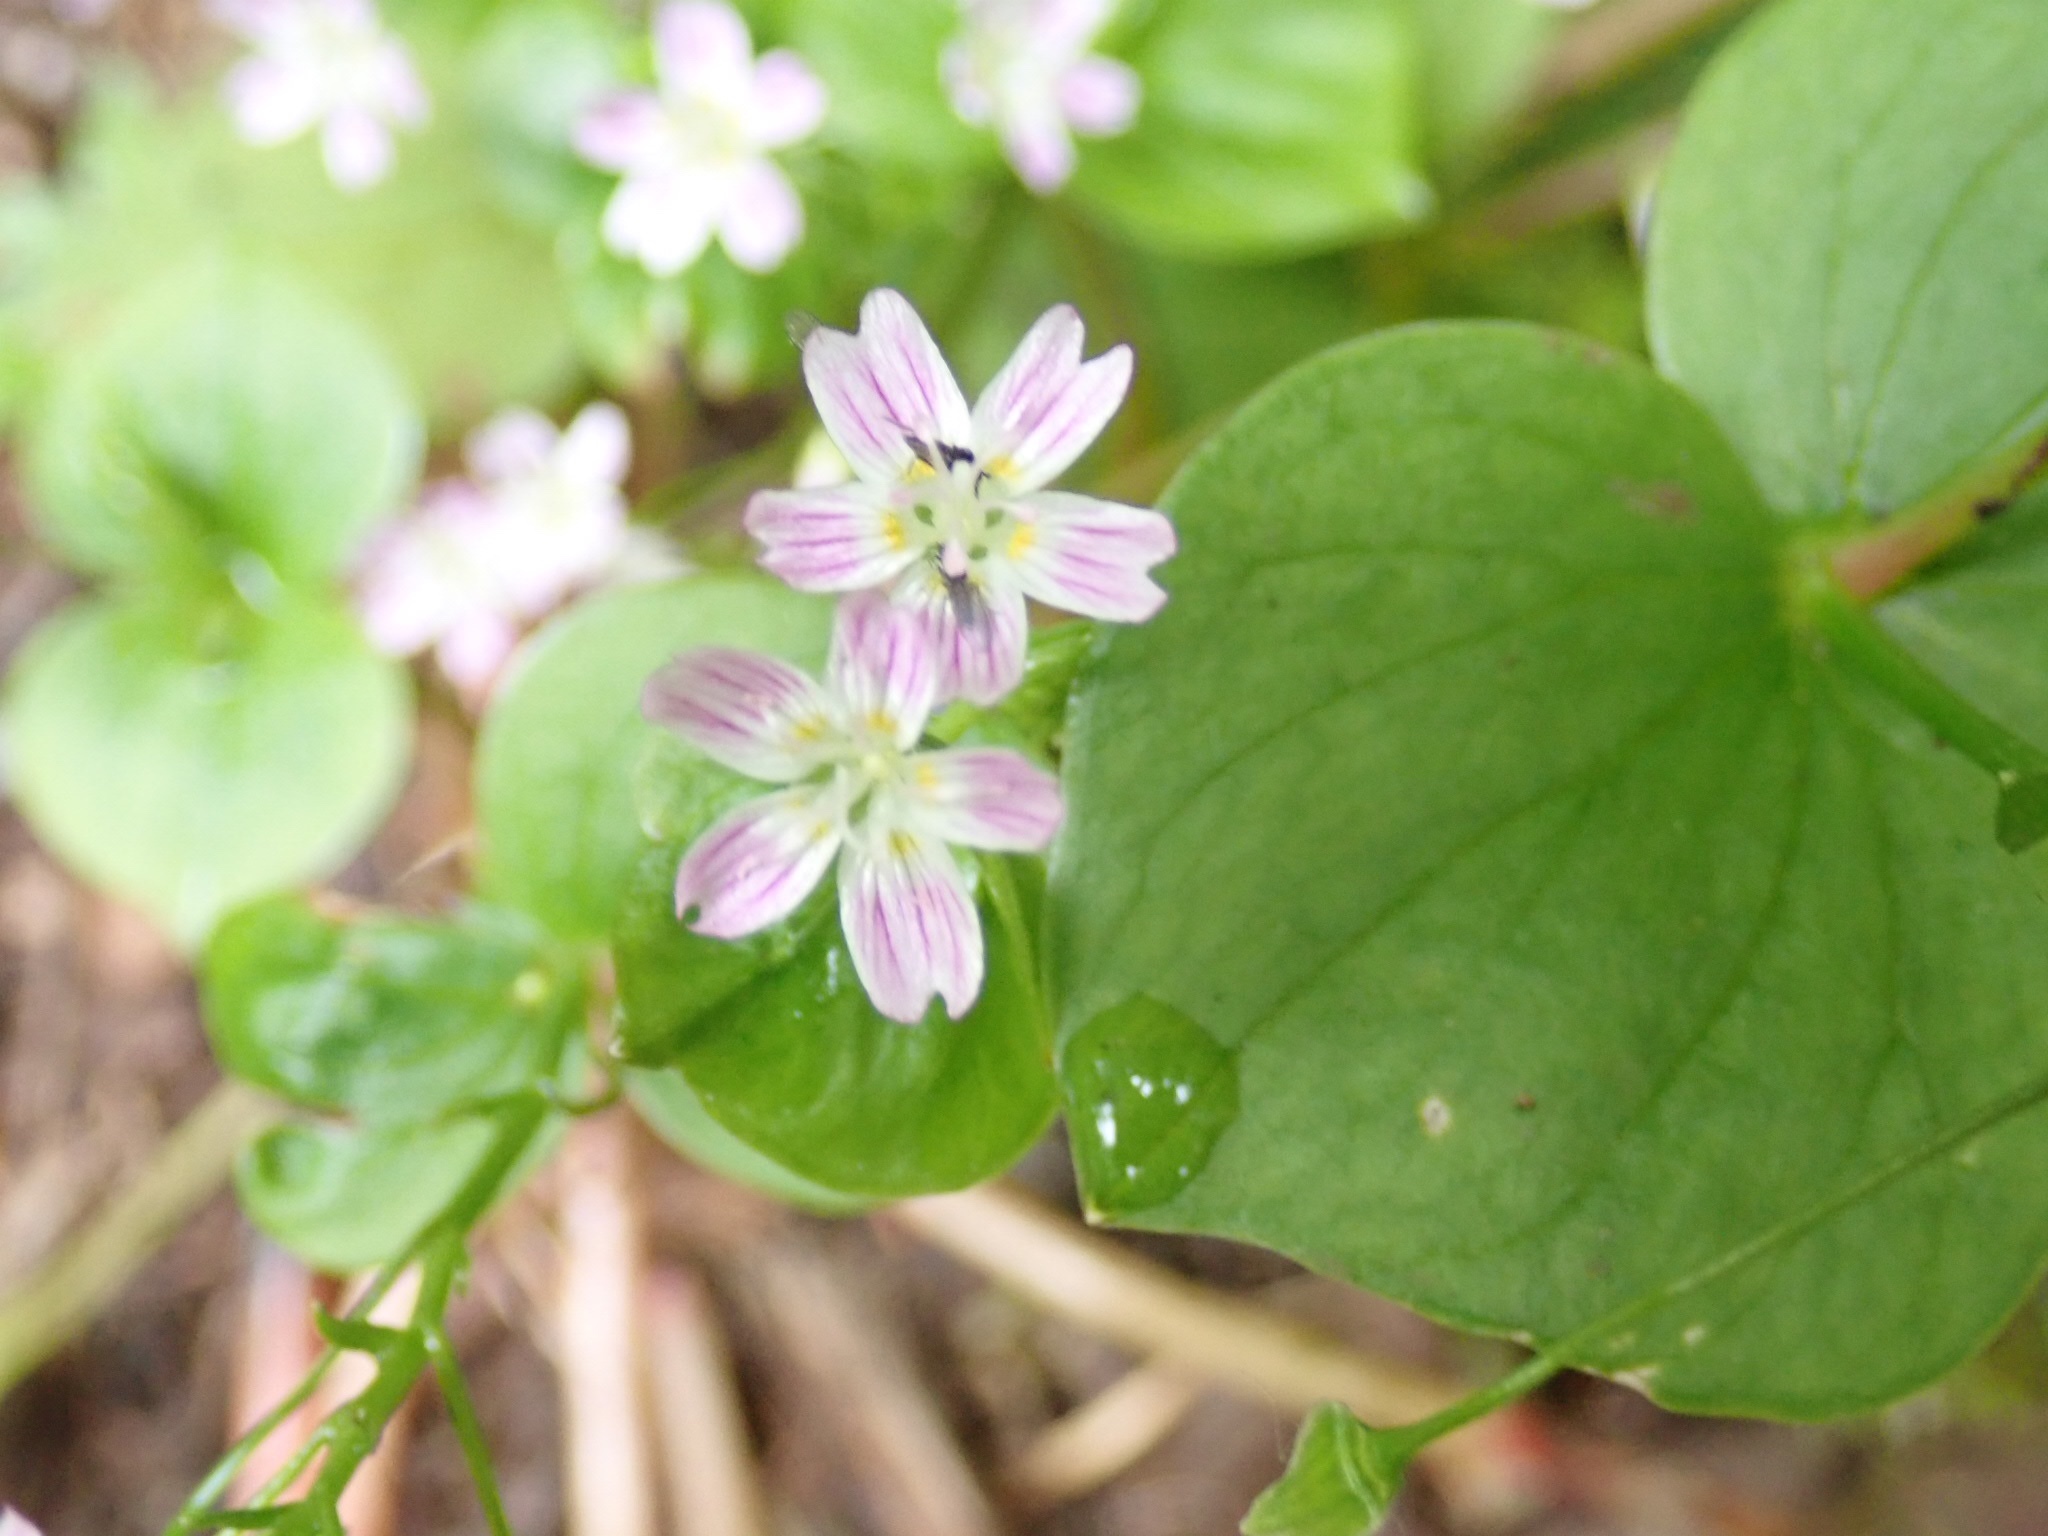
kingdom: Plantae
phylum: Tracheophyta
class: Magnoliopsida
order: Caryophyllales
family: Montiaceae
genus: Claytonia
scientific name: Claytonia sibirica
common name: Pink purslane
